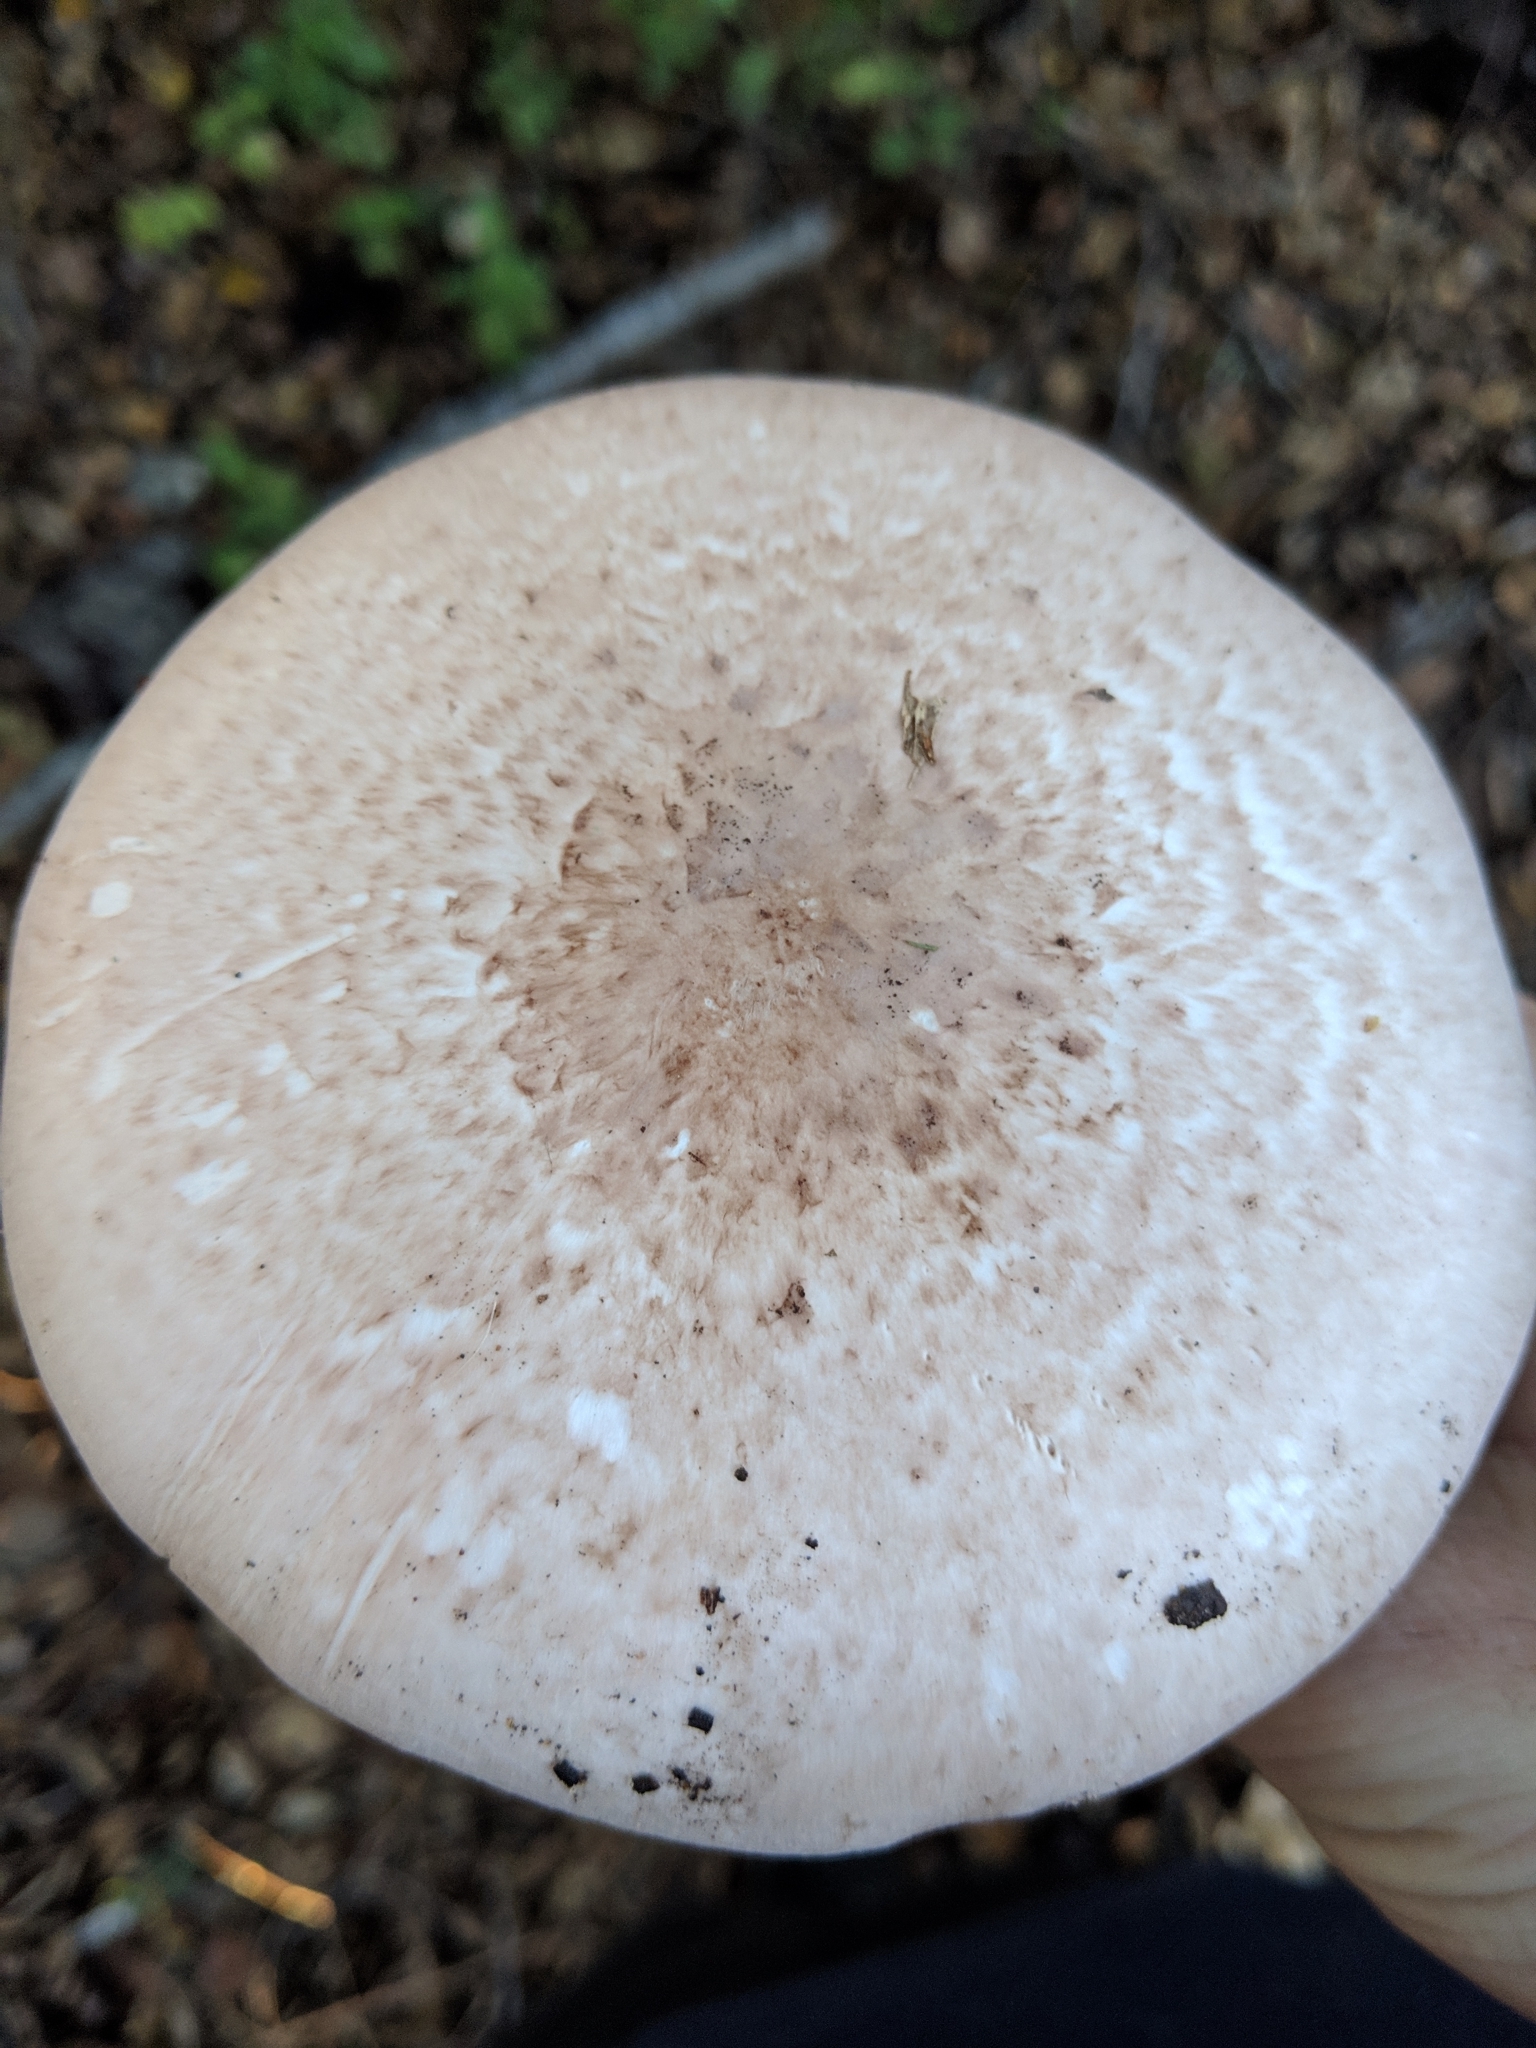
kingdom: Fungi
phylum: Basidiomycota
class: Agaricomycetes
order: Agaricales
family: Agaricaceae
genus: Agaricus
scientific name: Agaricus hondensis
